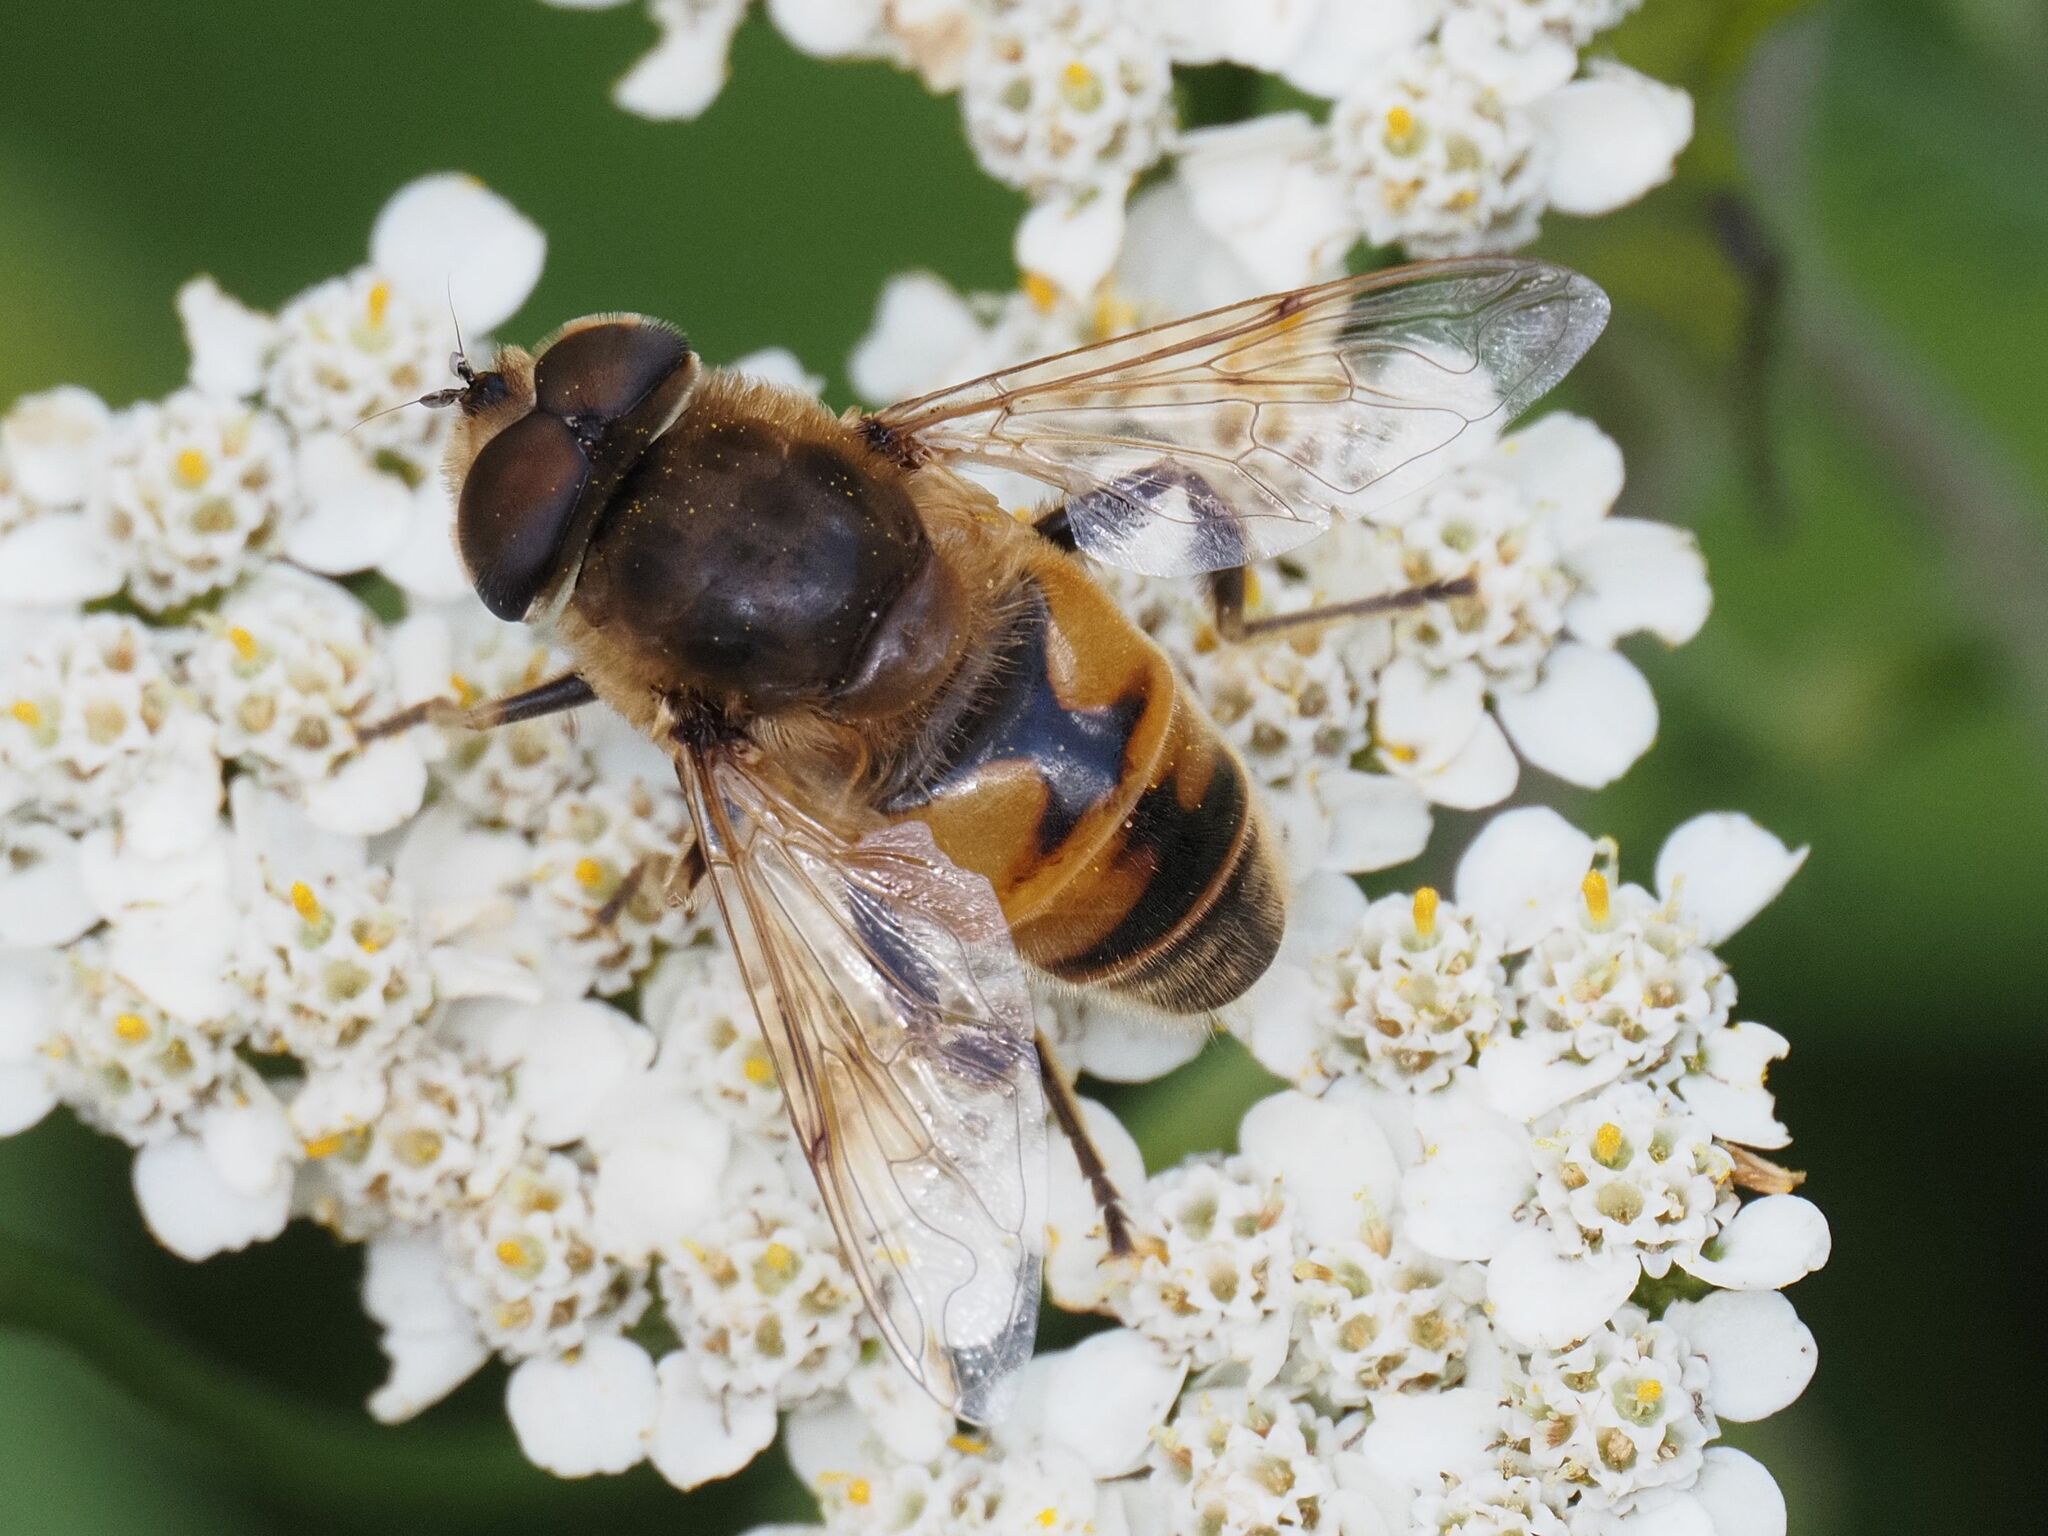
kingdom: Animalia
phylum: Arthropoda
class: Insecta
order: Diptera
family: Syrphidae
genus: Eristalis
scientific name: Eristalis tenax
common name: Drone fly
